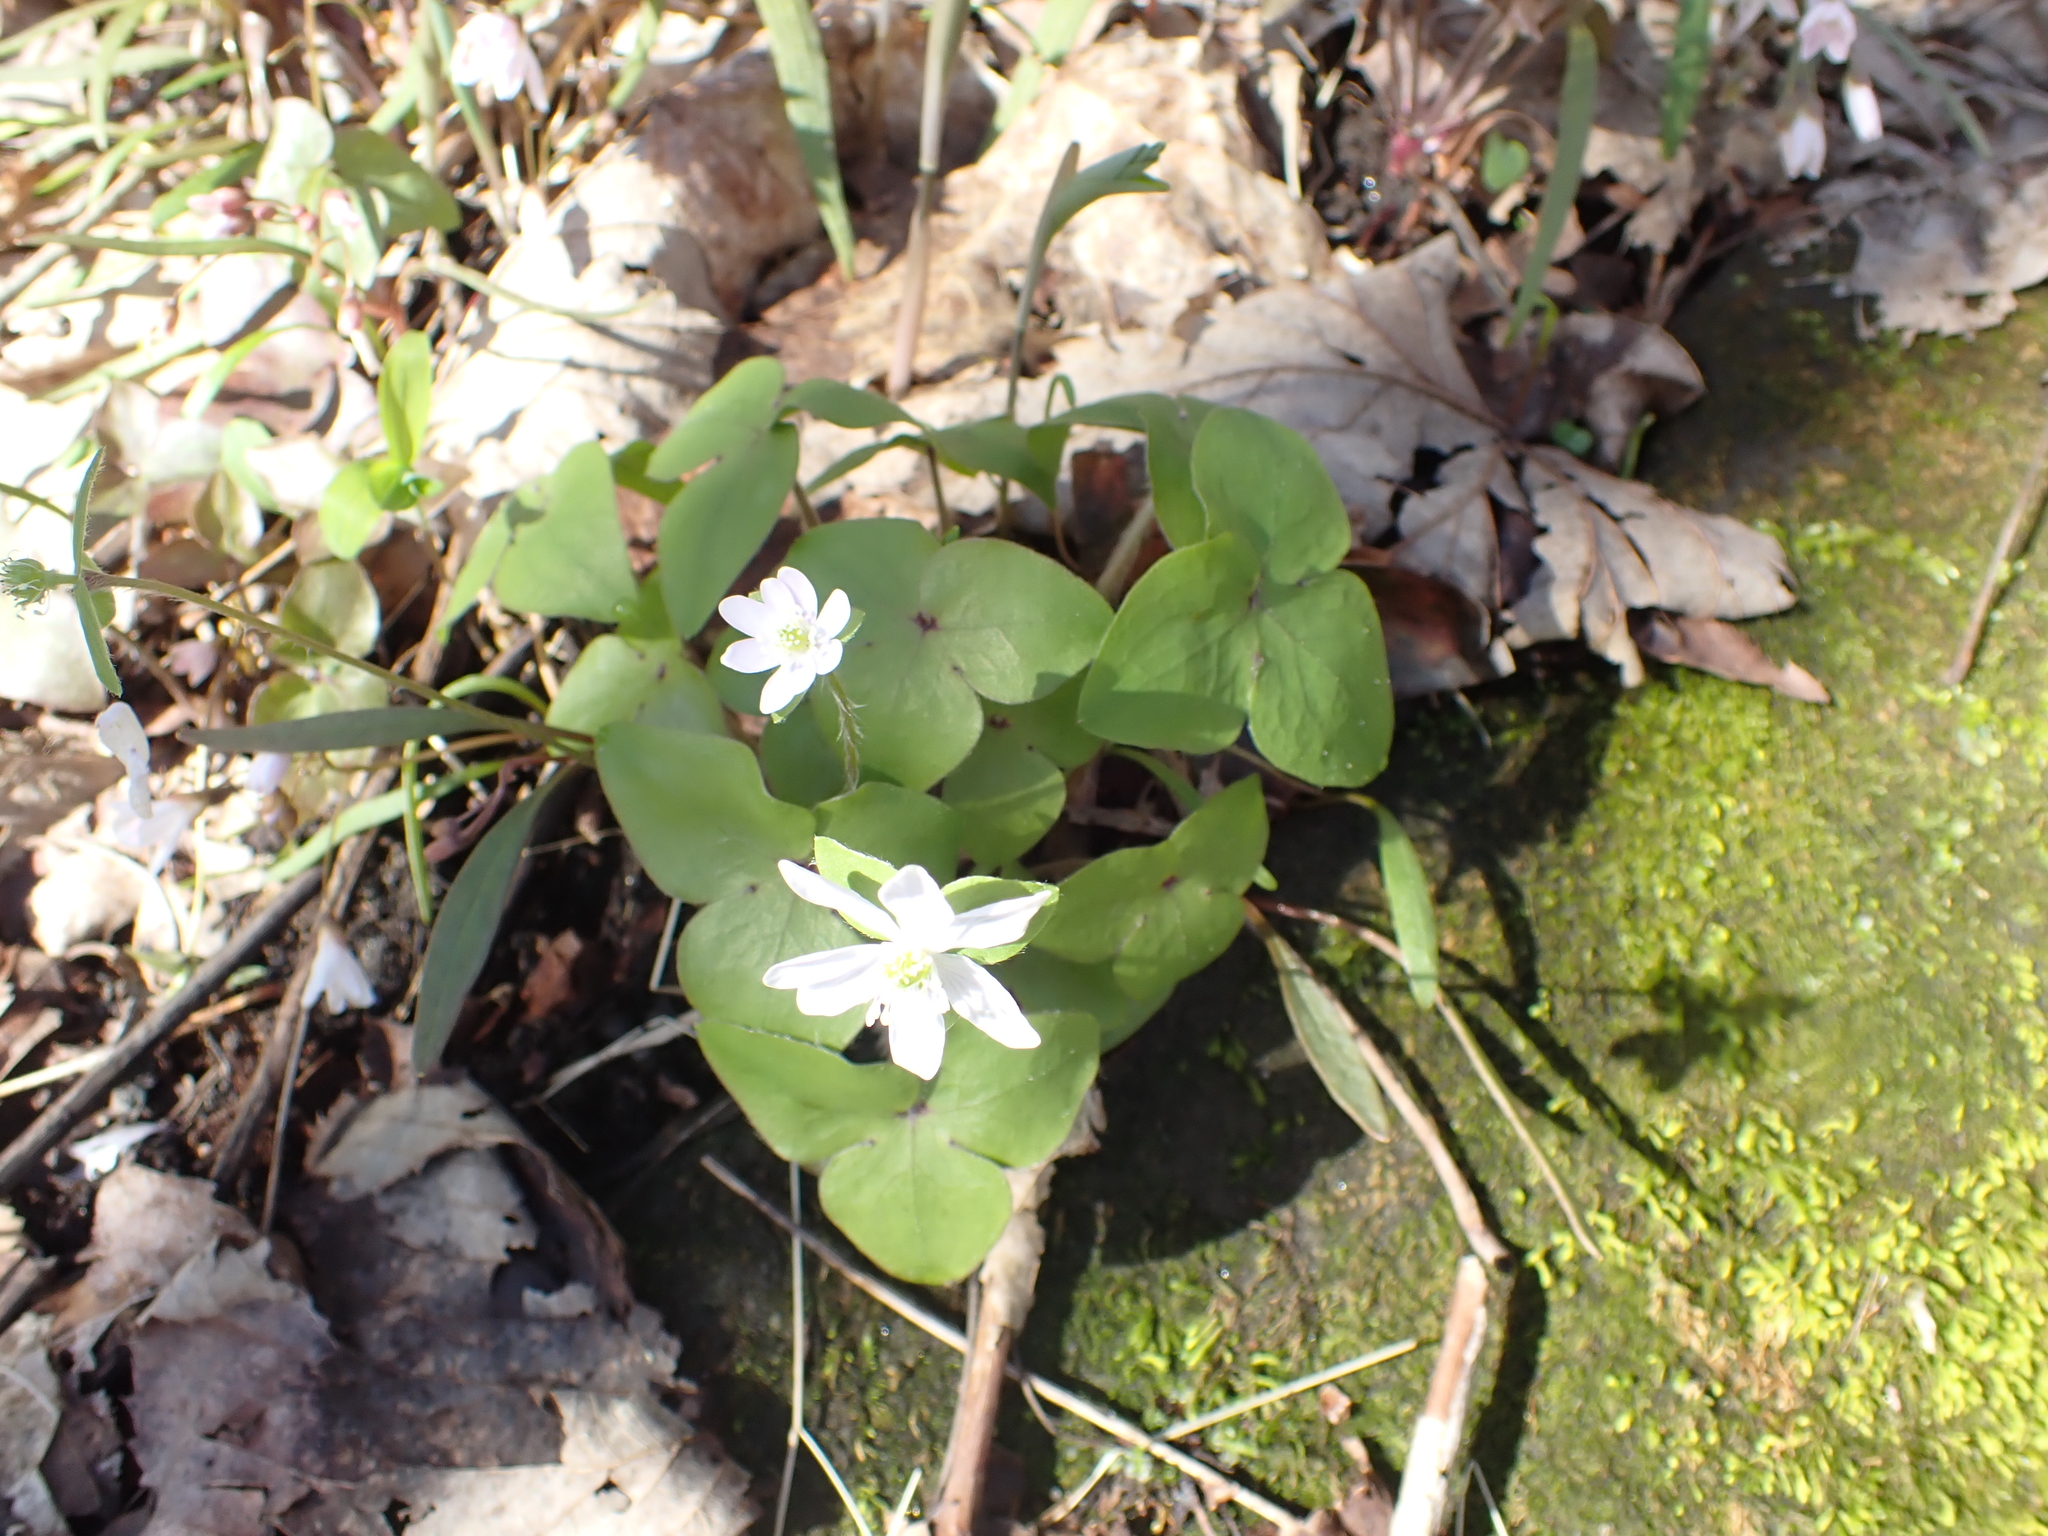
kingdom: Plantae
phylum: Tracheophyta
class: Magnoliopsida
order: Ranunculales
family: Ranunculaceae
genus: Hepatica
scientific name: Hepatica acutiloba
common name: Sharp-lobed hepatica
